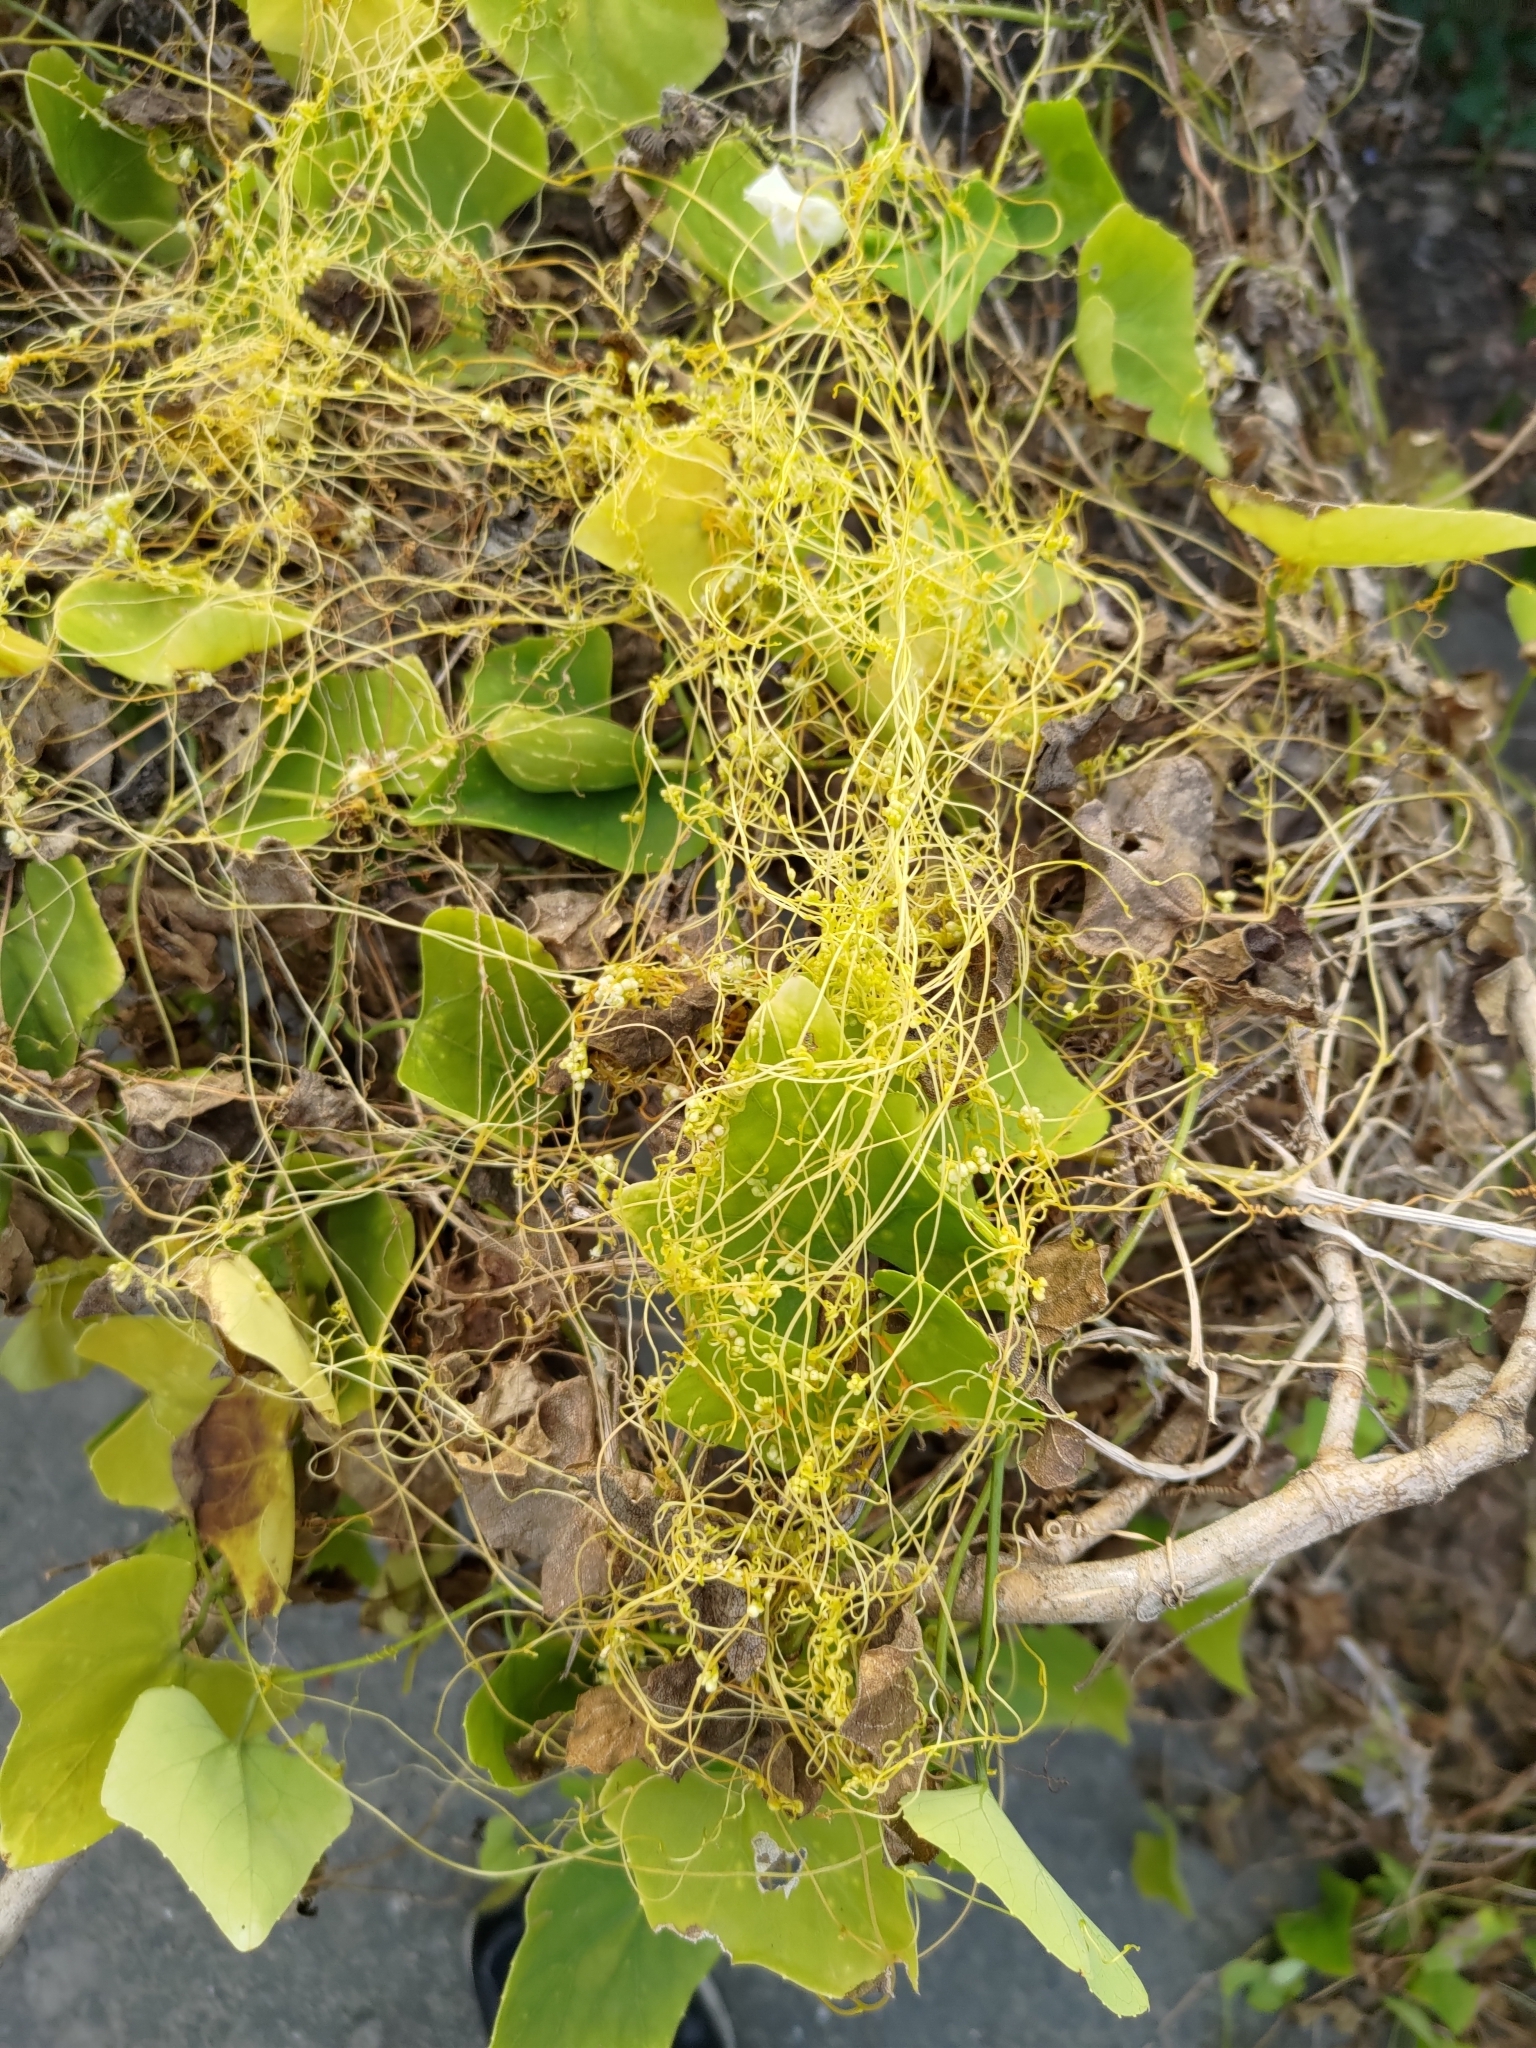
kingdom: Plantae
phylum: Tracheophyta
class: Magnoliopsida
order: Solanales
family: Convolvulaceae
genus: Cuscuta
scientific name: Cuscuta campestris
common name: Yellow dodder
